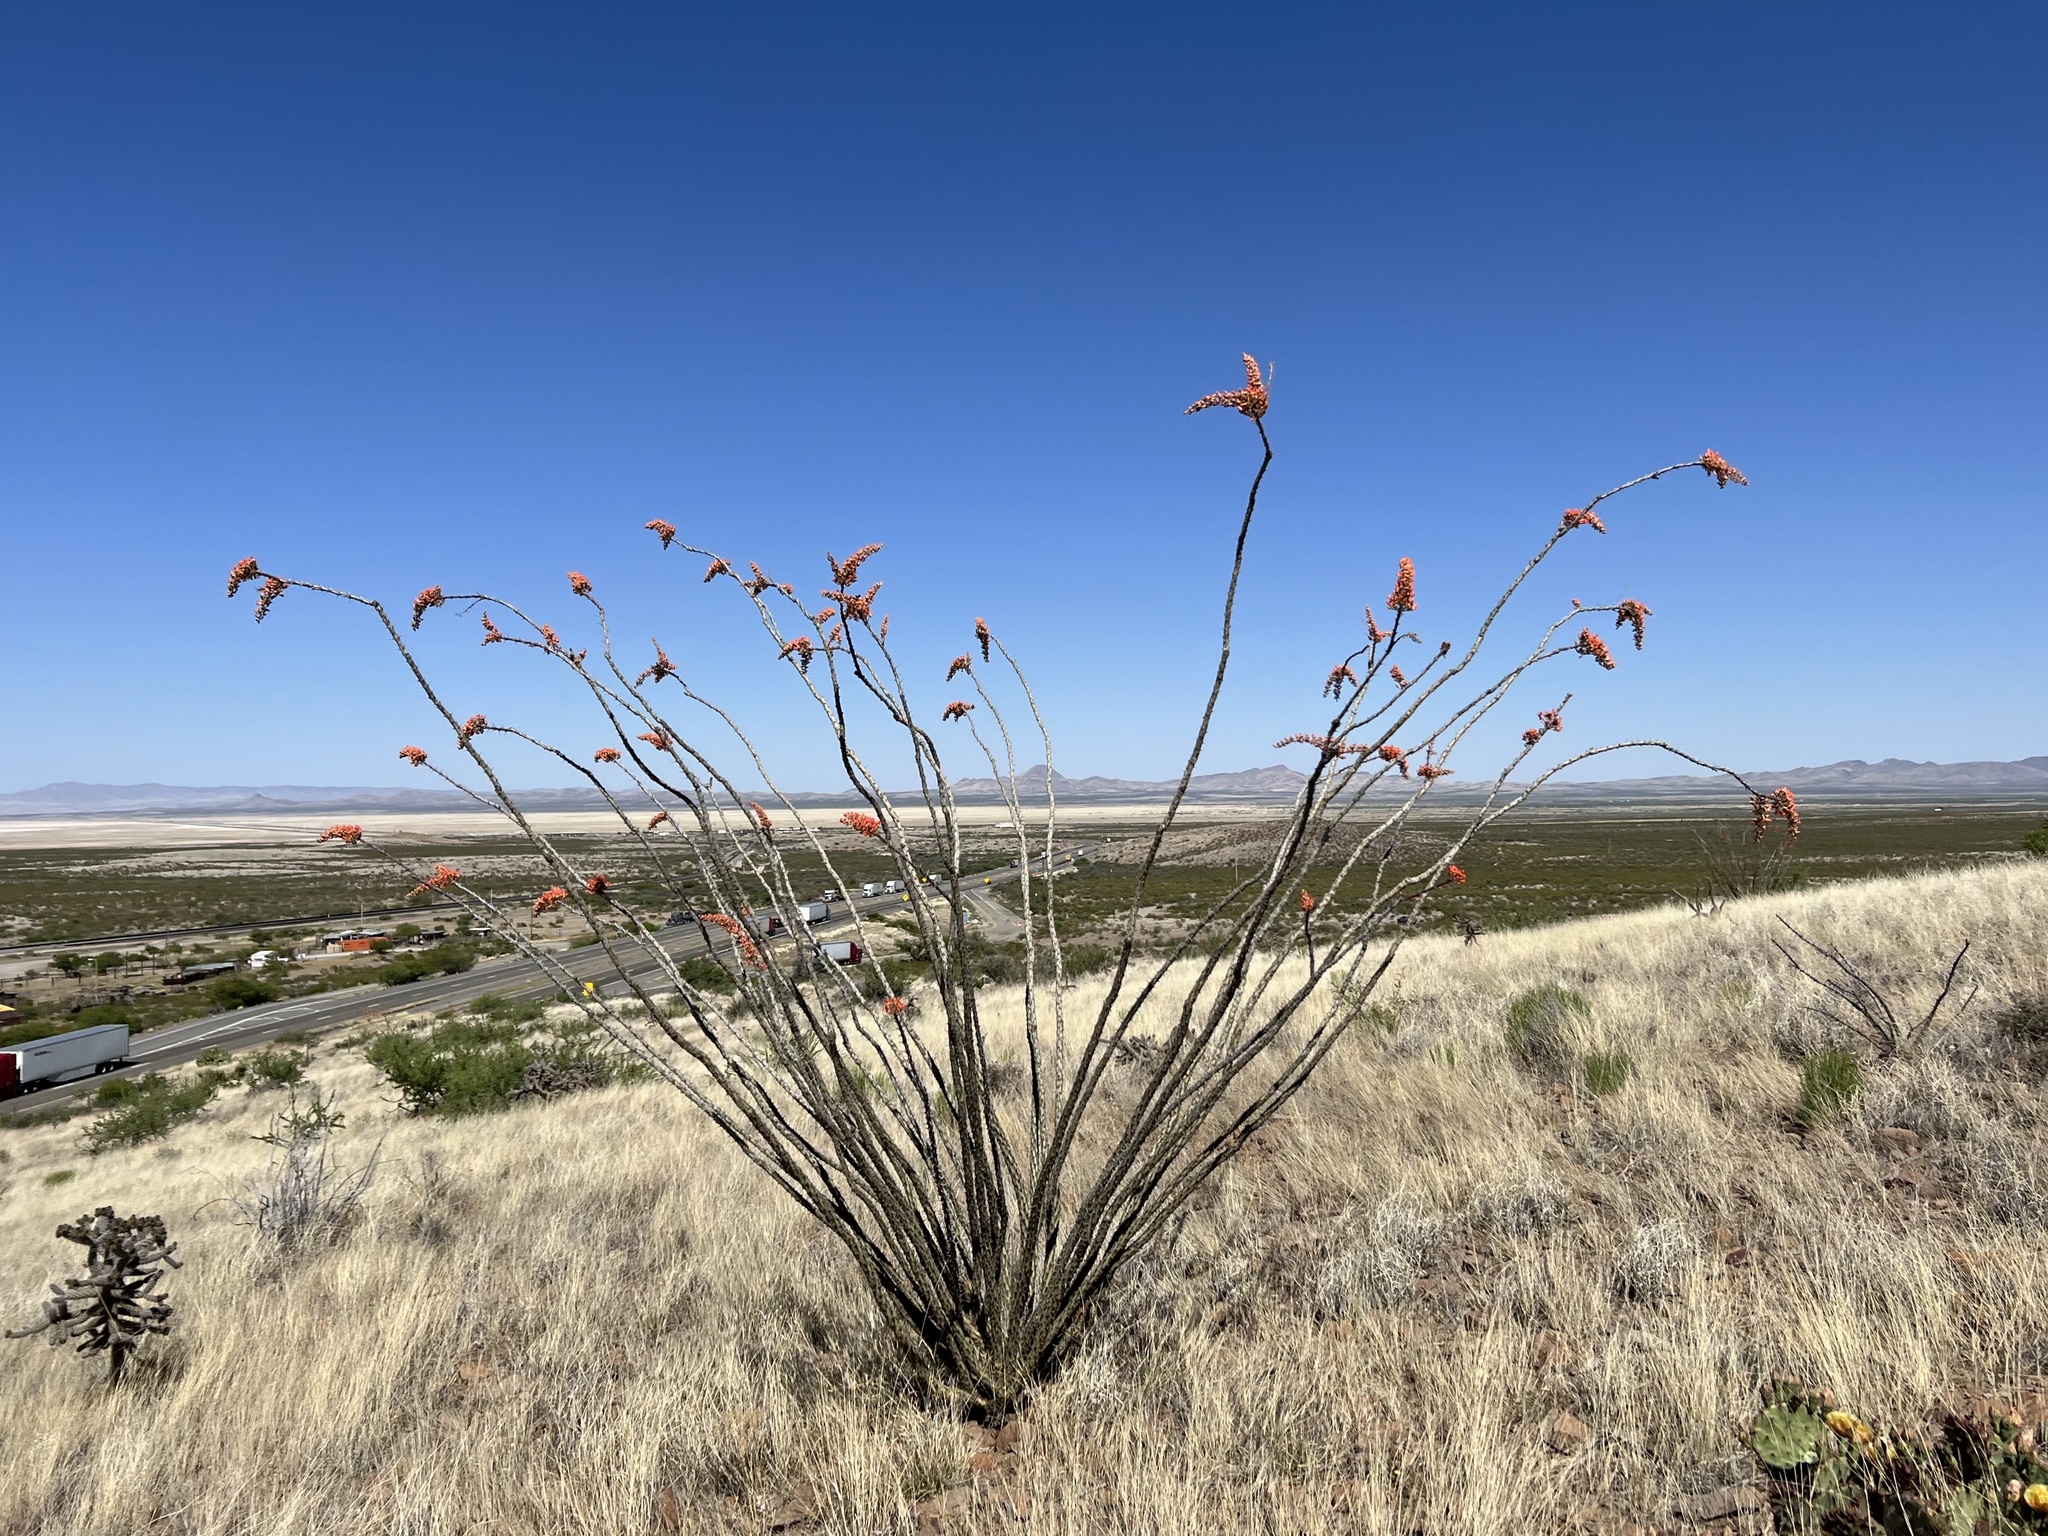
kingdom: Plantae
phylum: Tracheophyta
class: Magnoliopsida
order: Ericales
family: Fouquieriaceae
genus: Fouquieria
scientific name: Fouquieria splendens
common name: Vine-cactus
